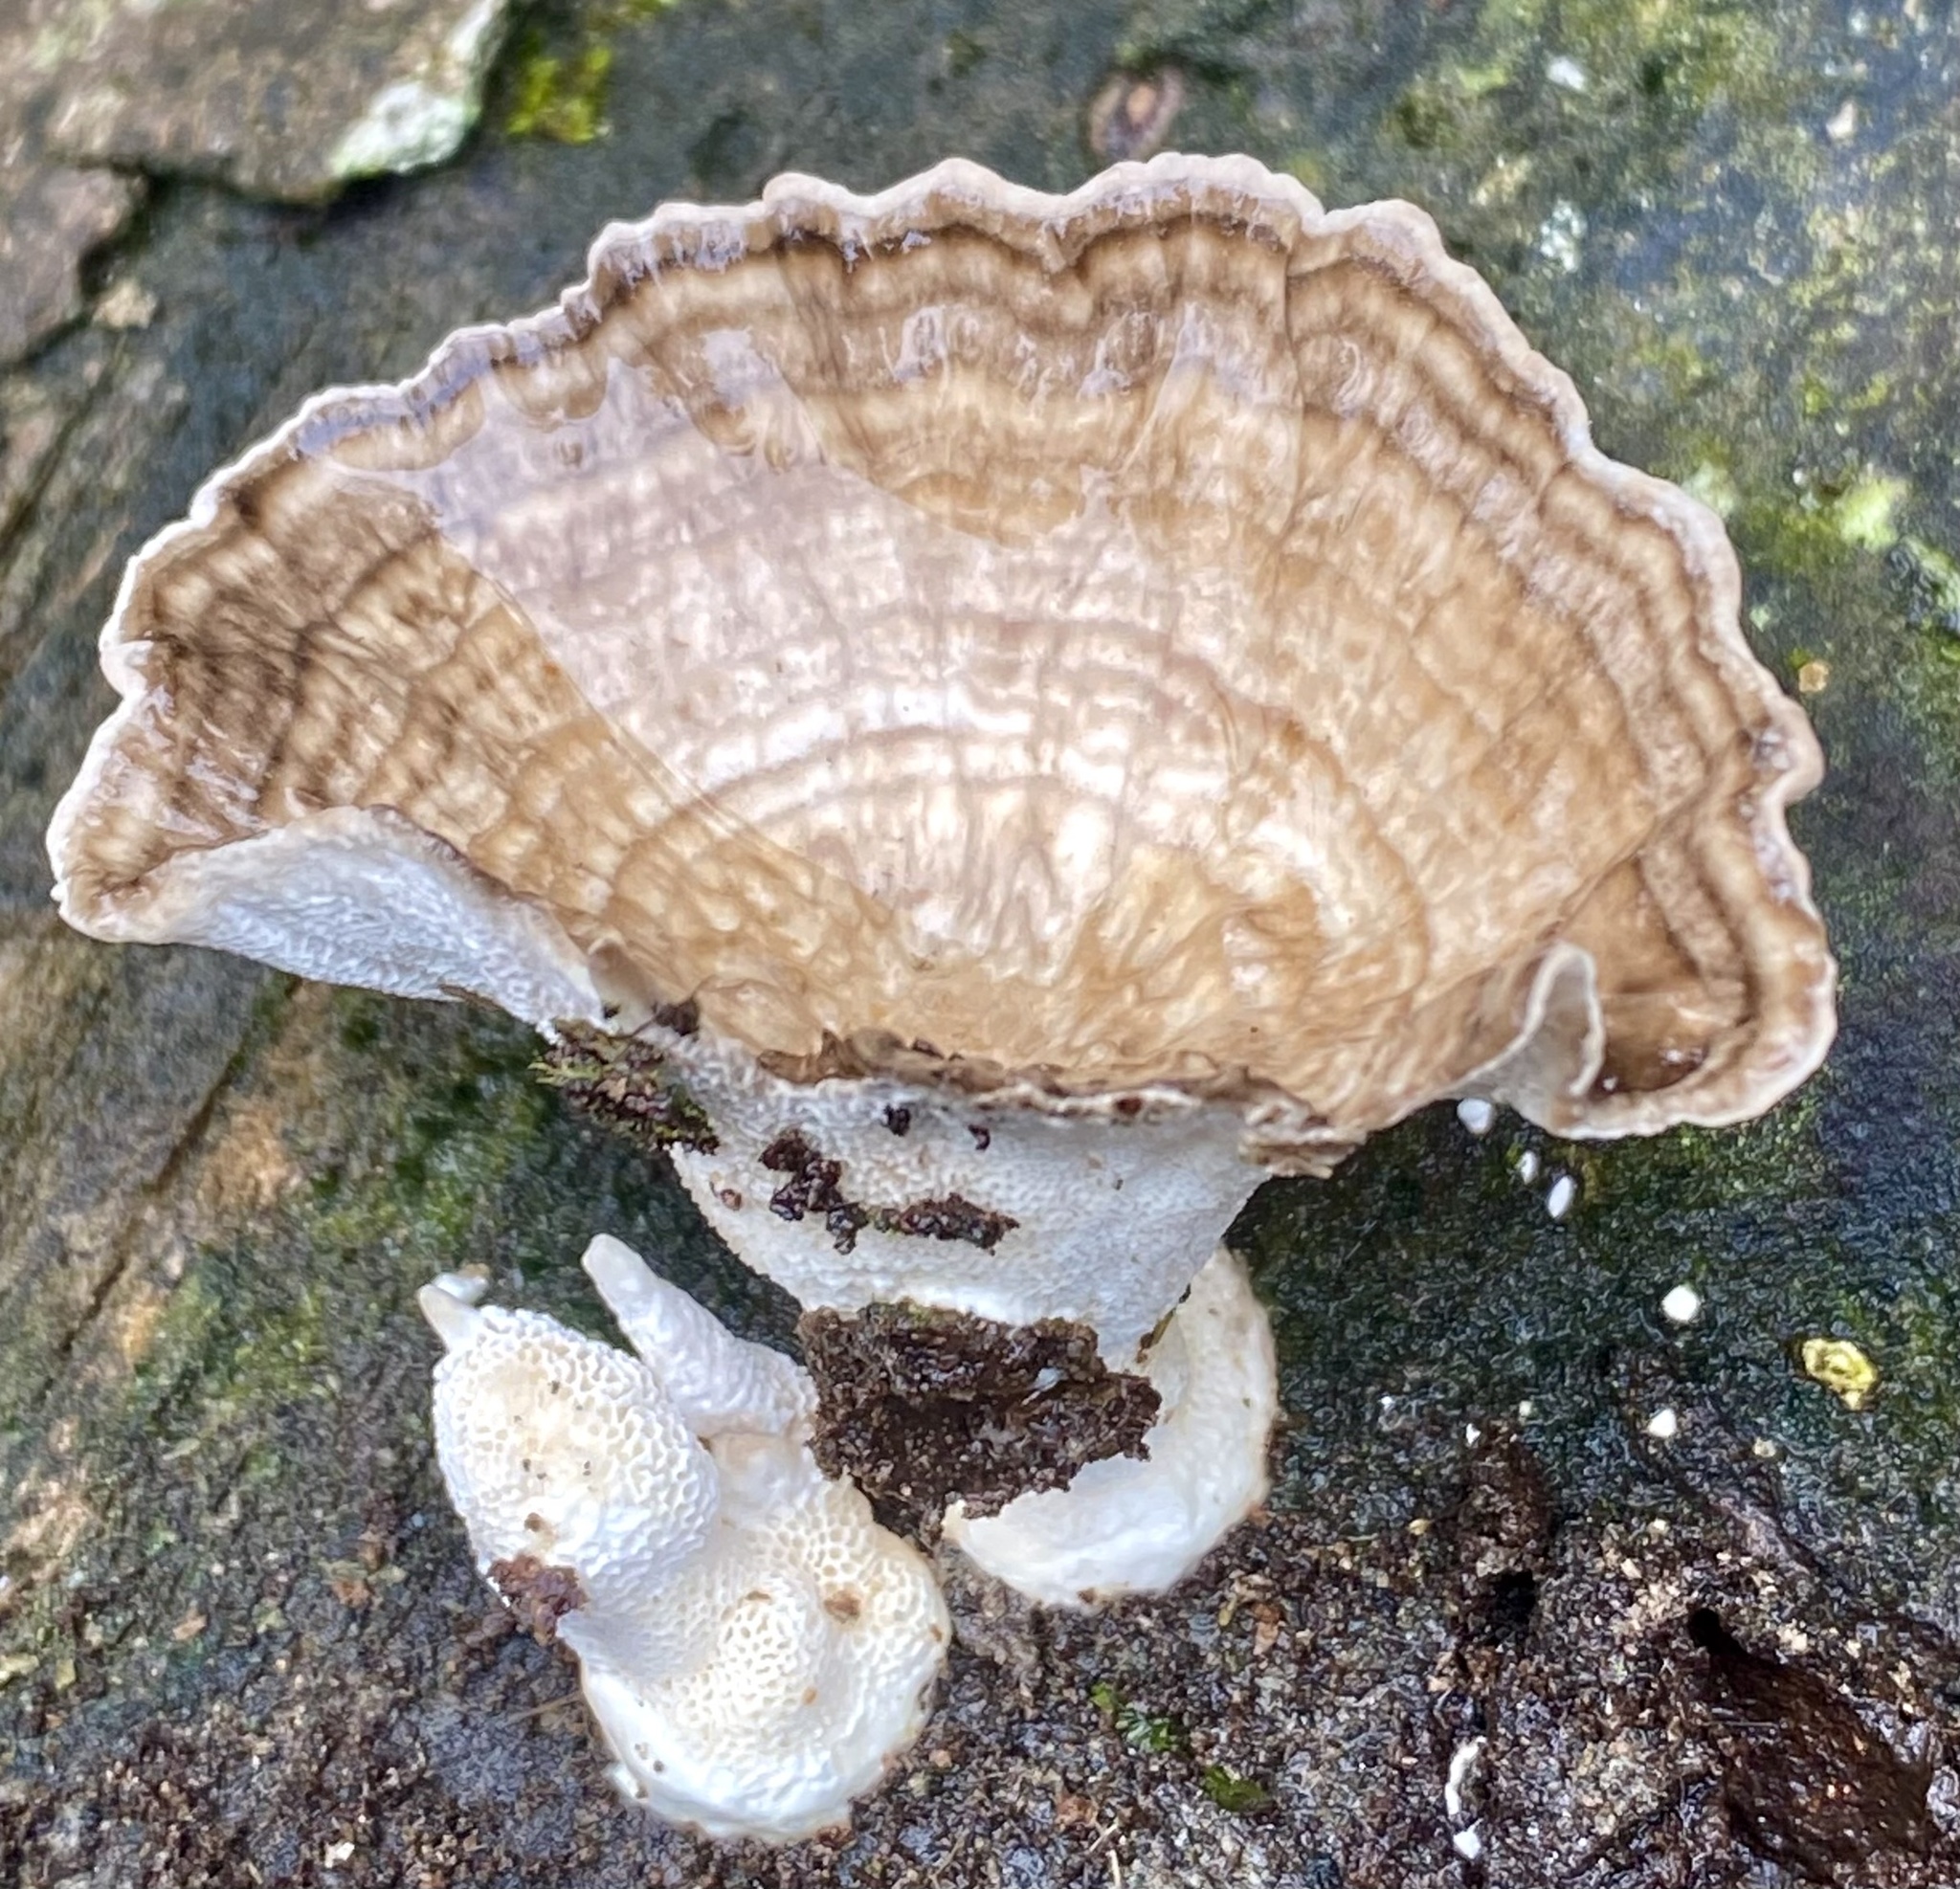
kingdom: Fungi
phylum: Basidiomycota
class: Agaricomycetes
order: Polyporales
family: Polyporaceae
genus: Cubamyces
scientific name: Cubamyces menziesii
